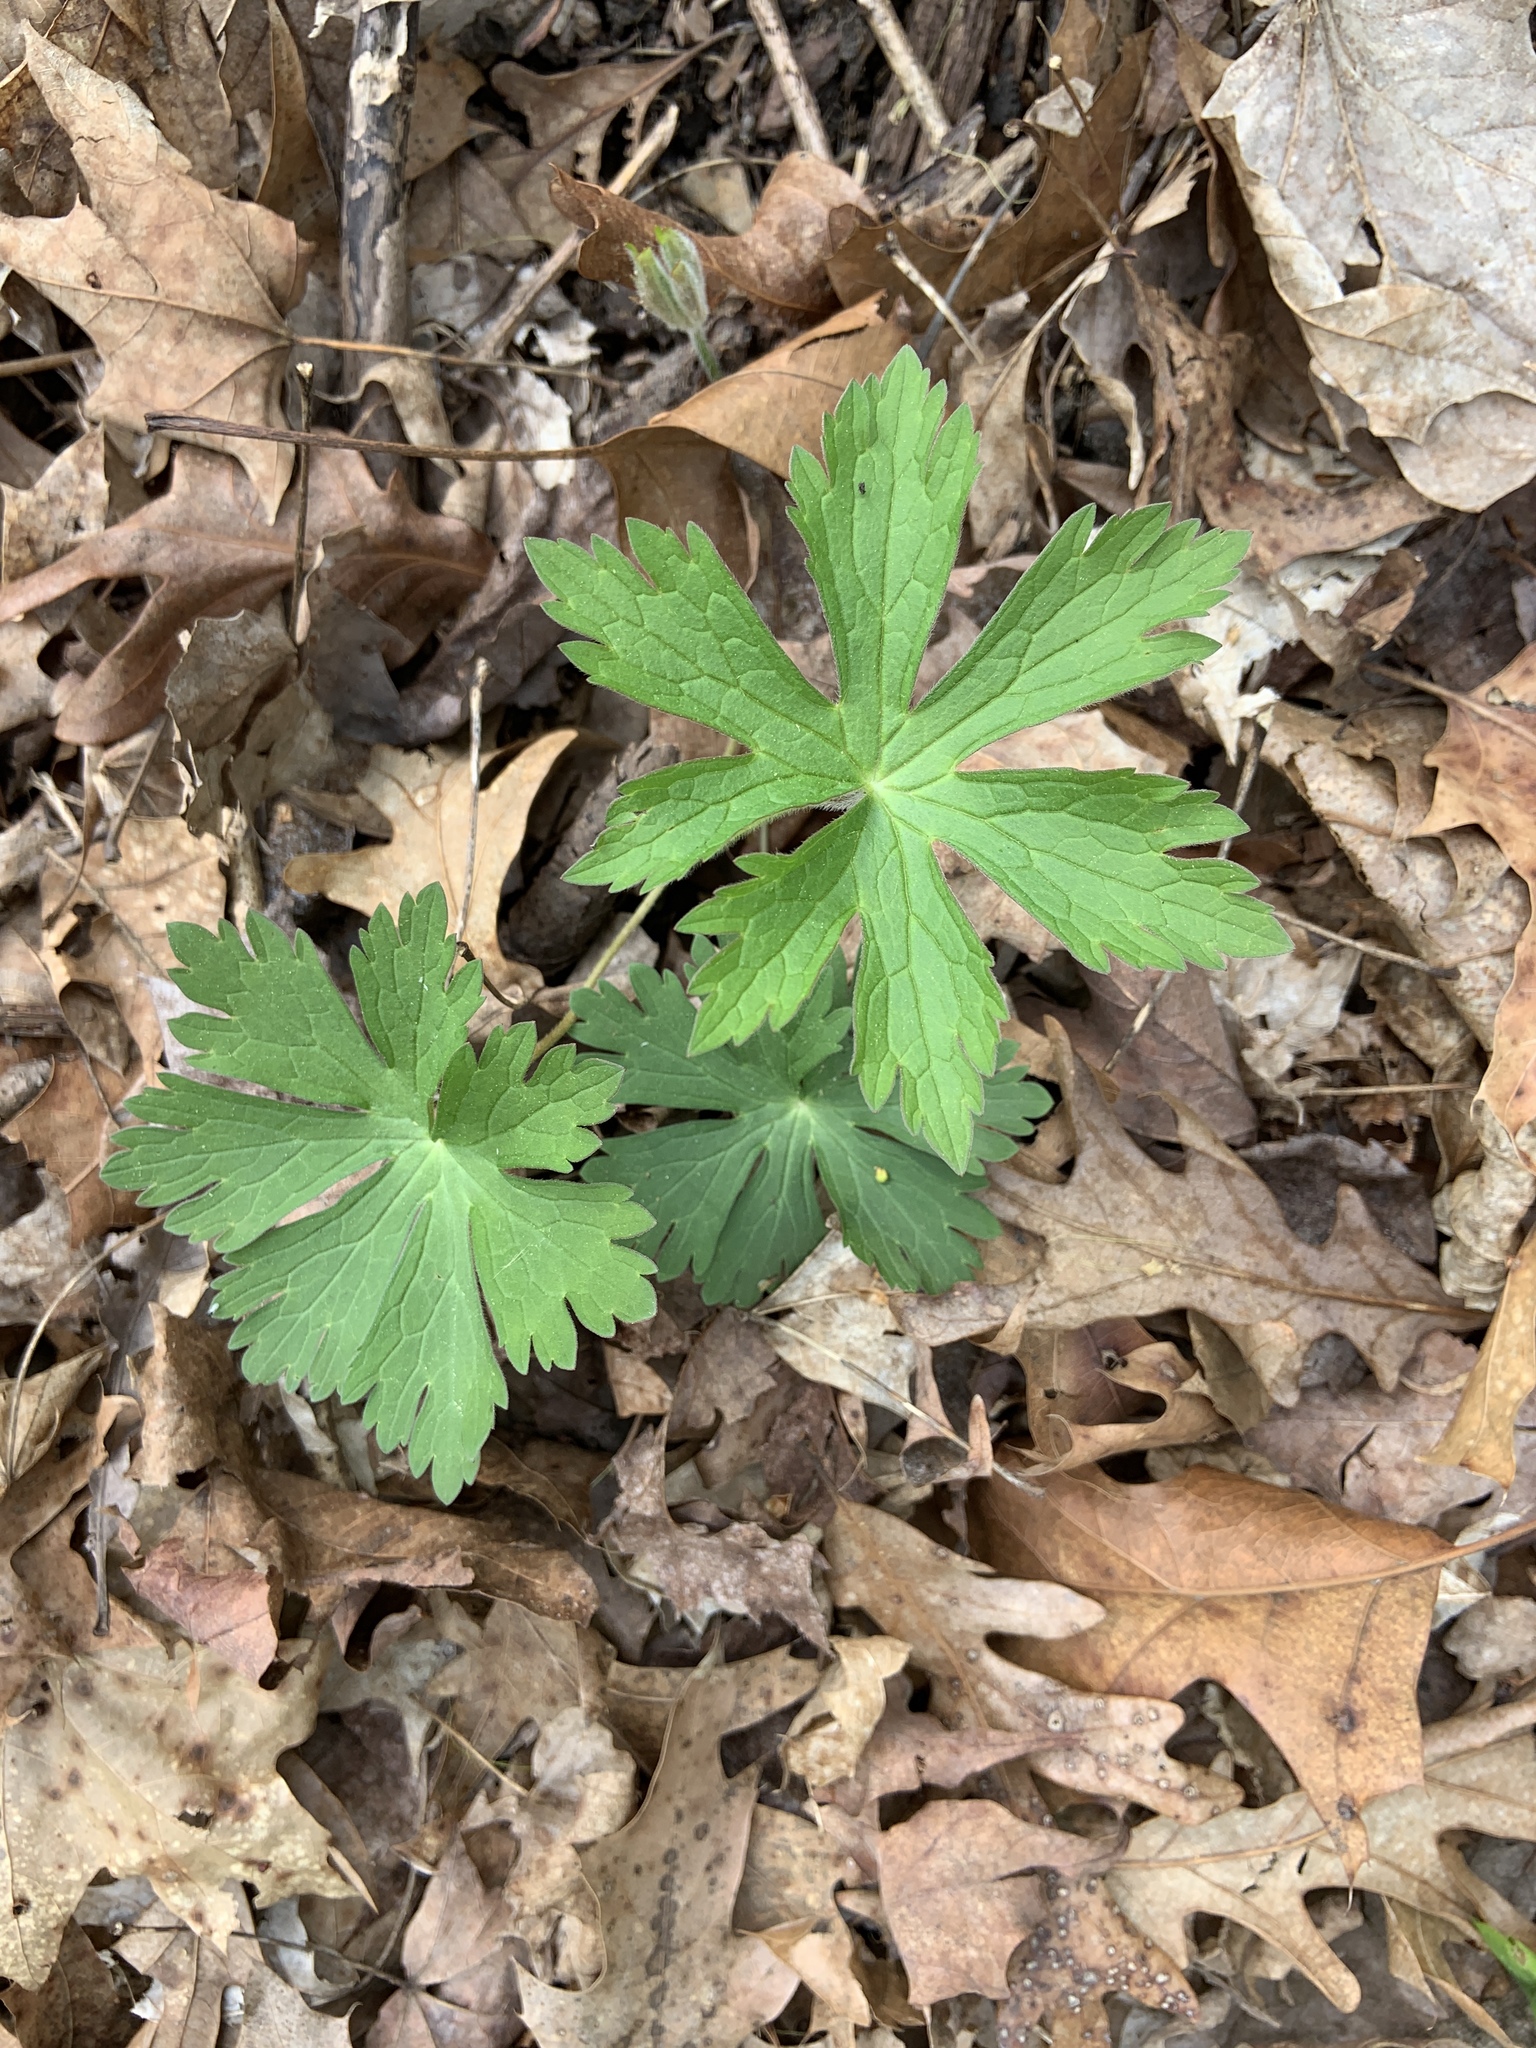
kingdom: Plantae
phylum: Tracheophyta
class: Magnoliopsida
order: Geraniales
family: Geraniaceae
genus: Geranium
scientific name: Geranium maculatum
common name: Spotted geranium
